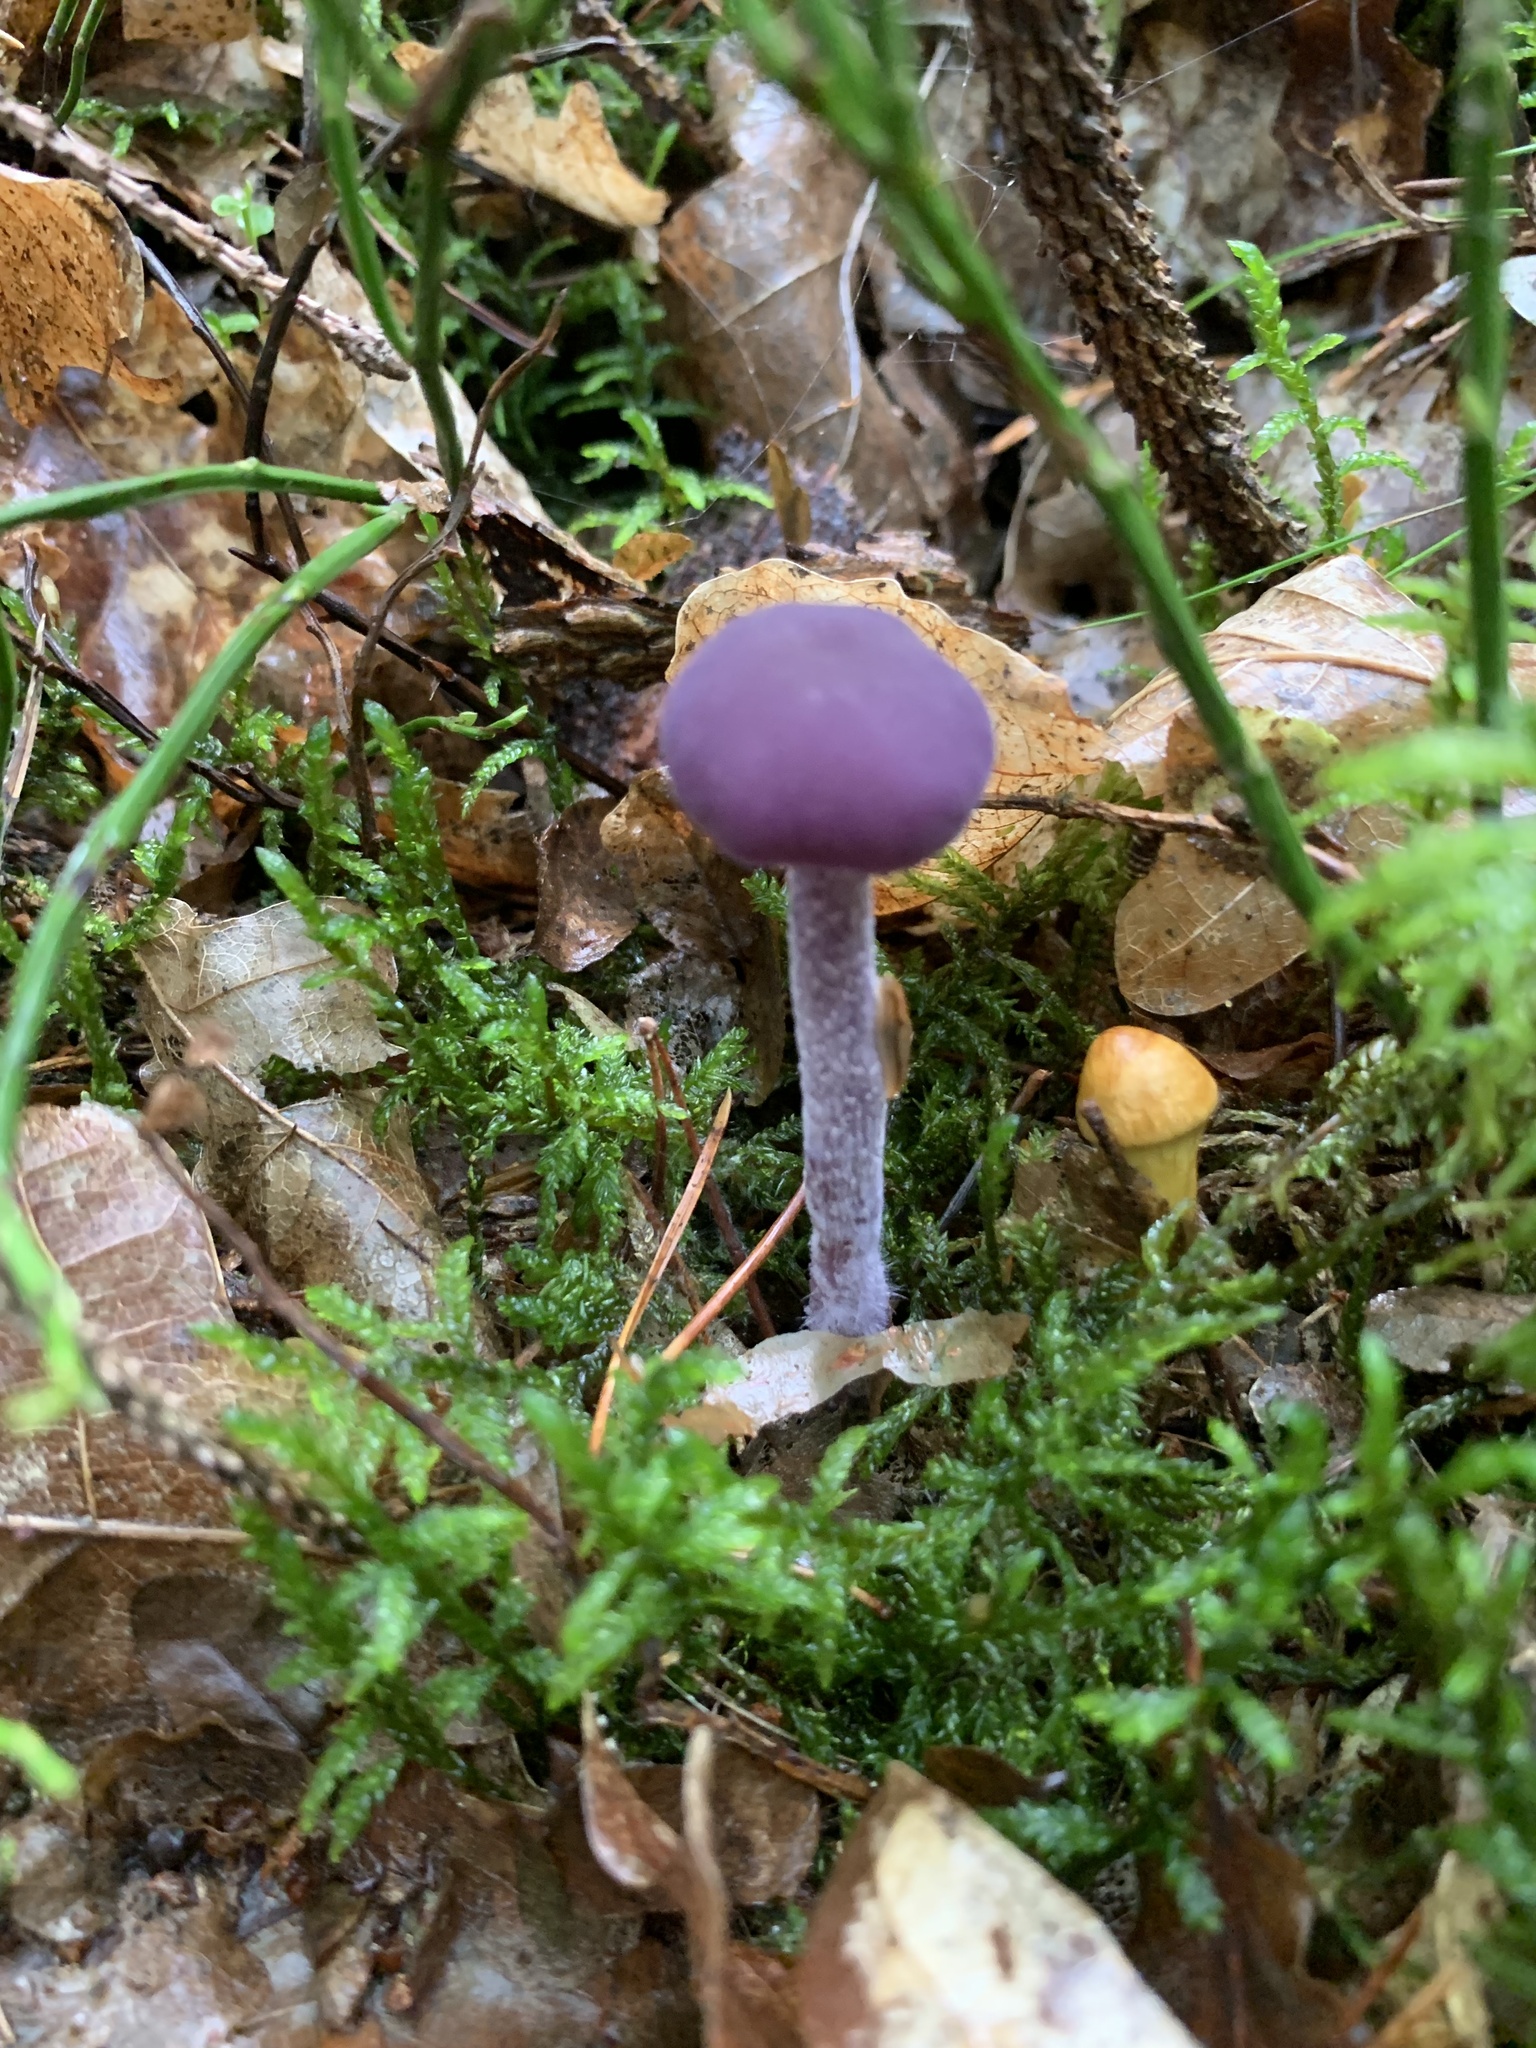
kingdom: Fungi
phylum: Basidiomycota
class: Agaricomycetes
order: Agaricales
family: Hydnangiaceae
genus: Laccaria
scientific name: Laccaria amethystina
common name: Amethyst deceiver
